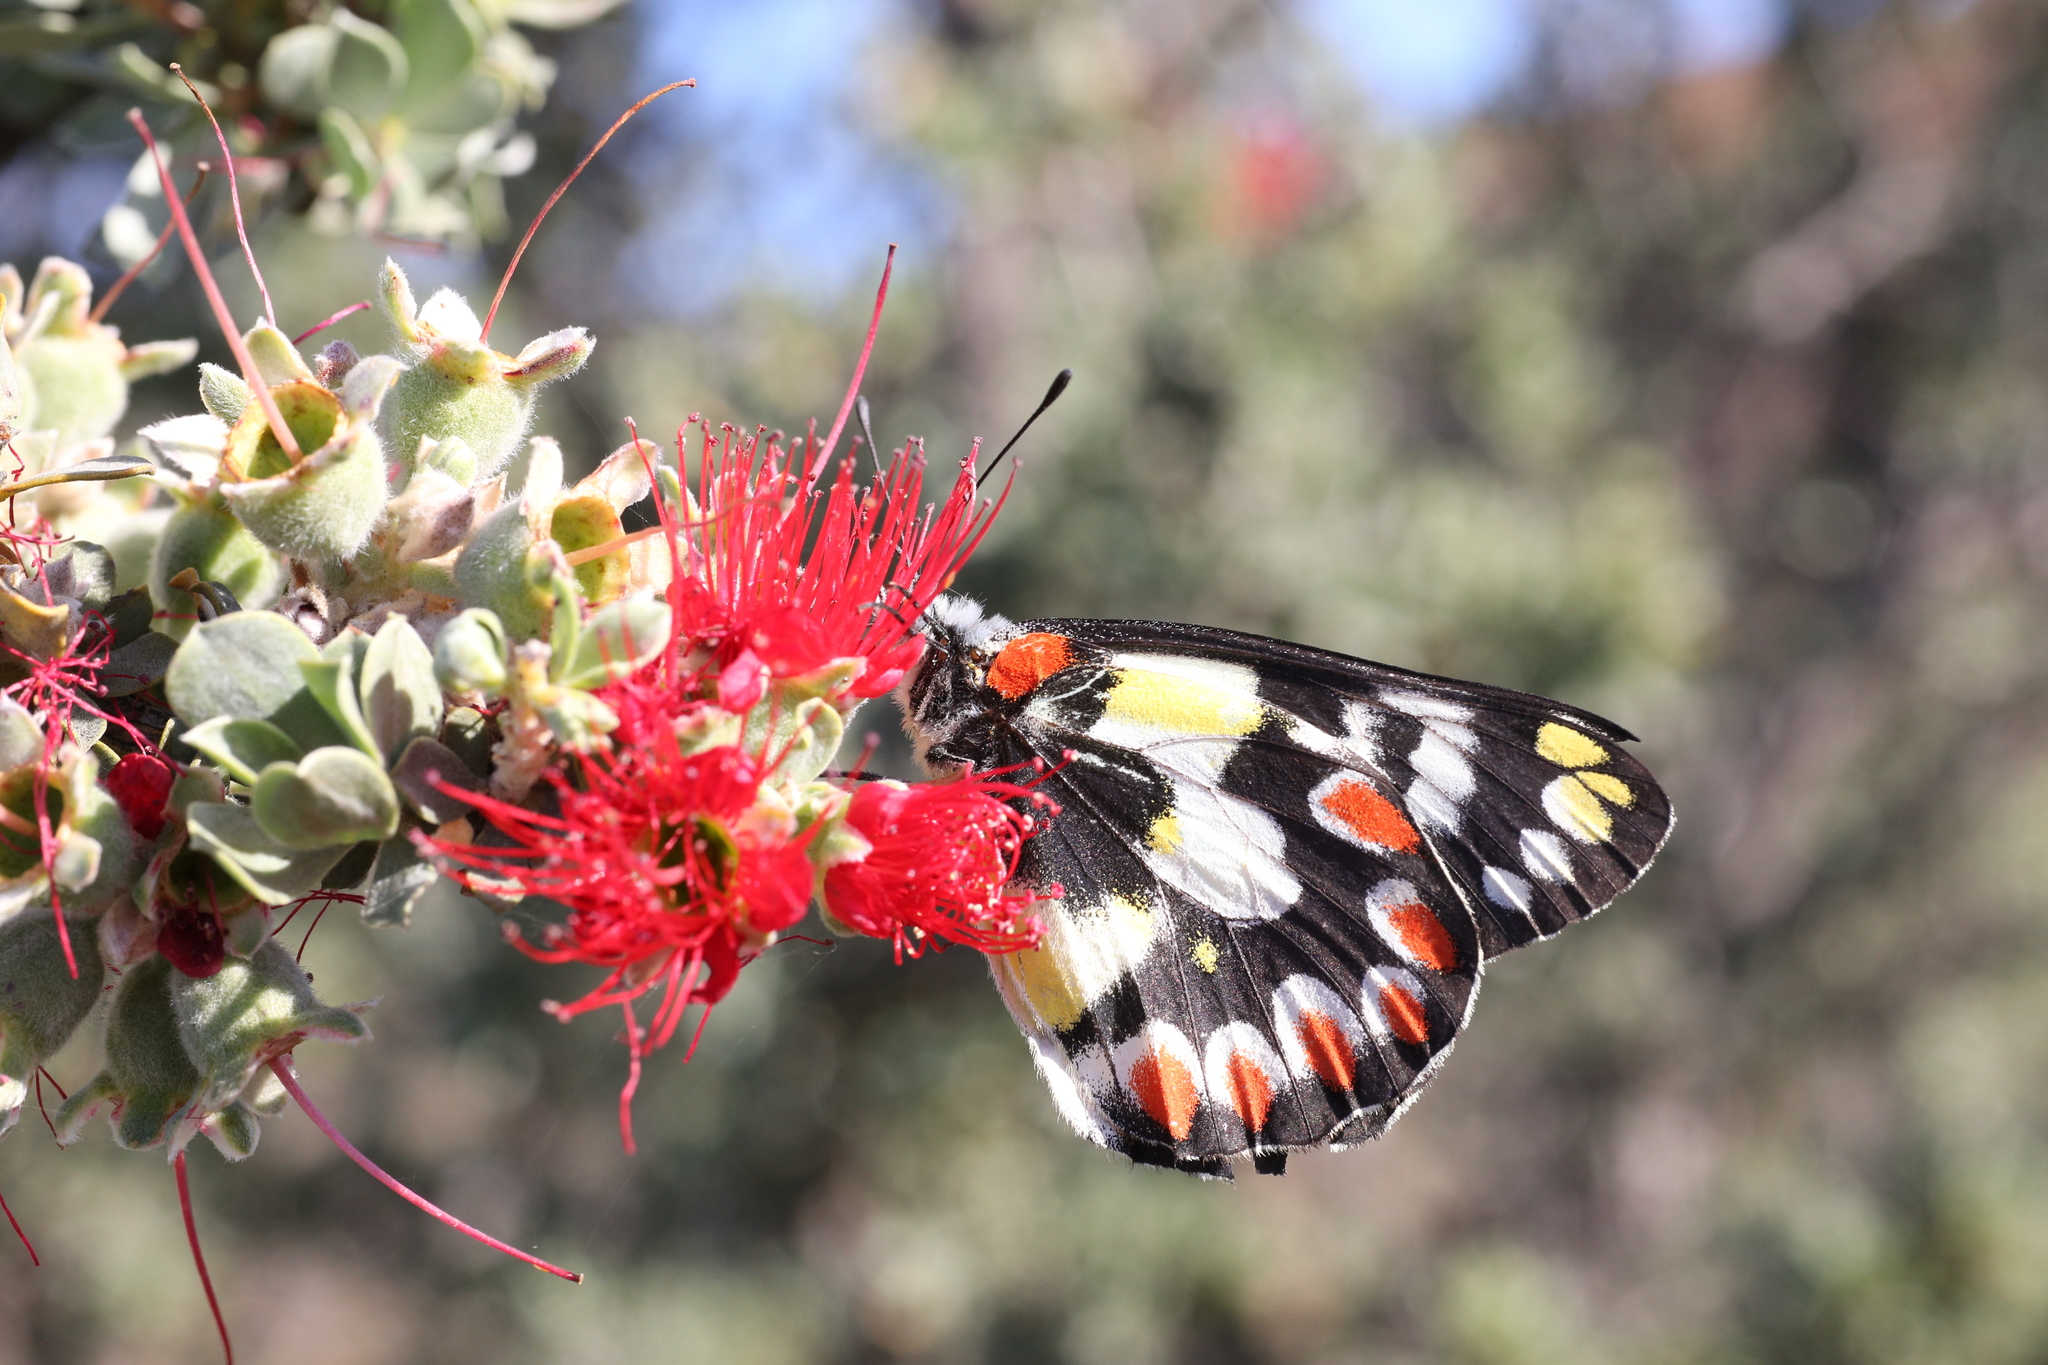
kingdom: Animalia
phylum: Arthropoda
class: Insecta
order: Lepidoptera
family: Pieridae
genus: Delias
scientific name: Delias aganippe
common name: Red-spotted jezebel
